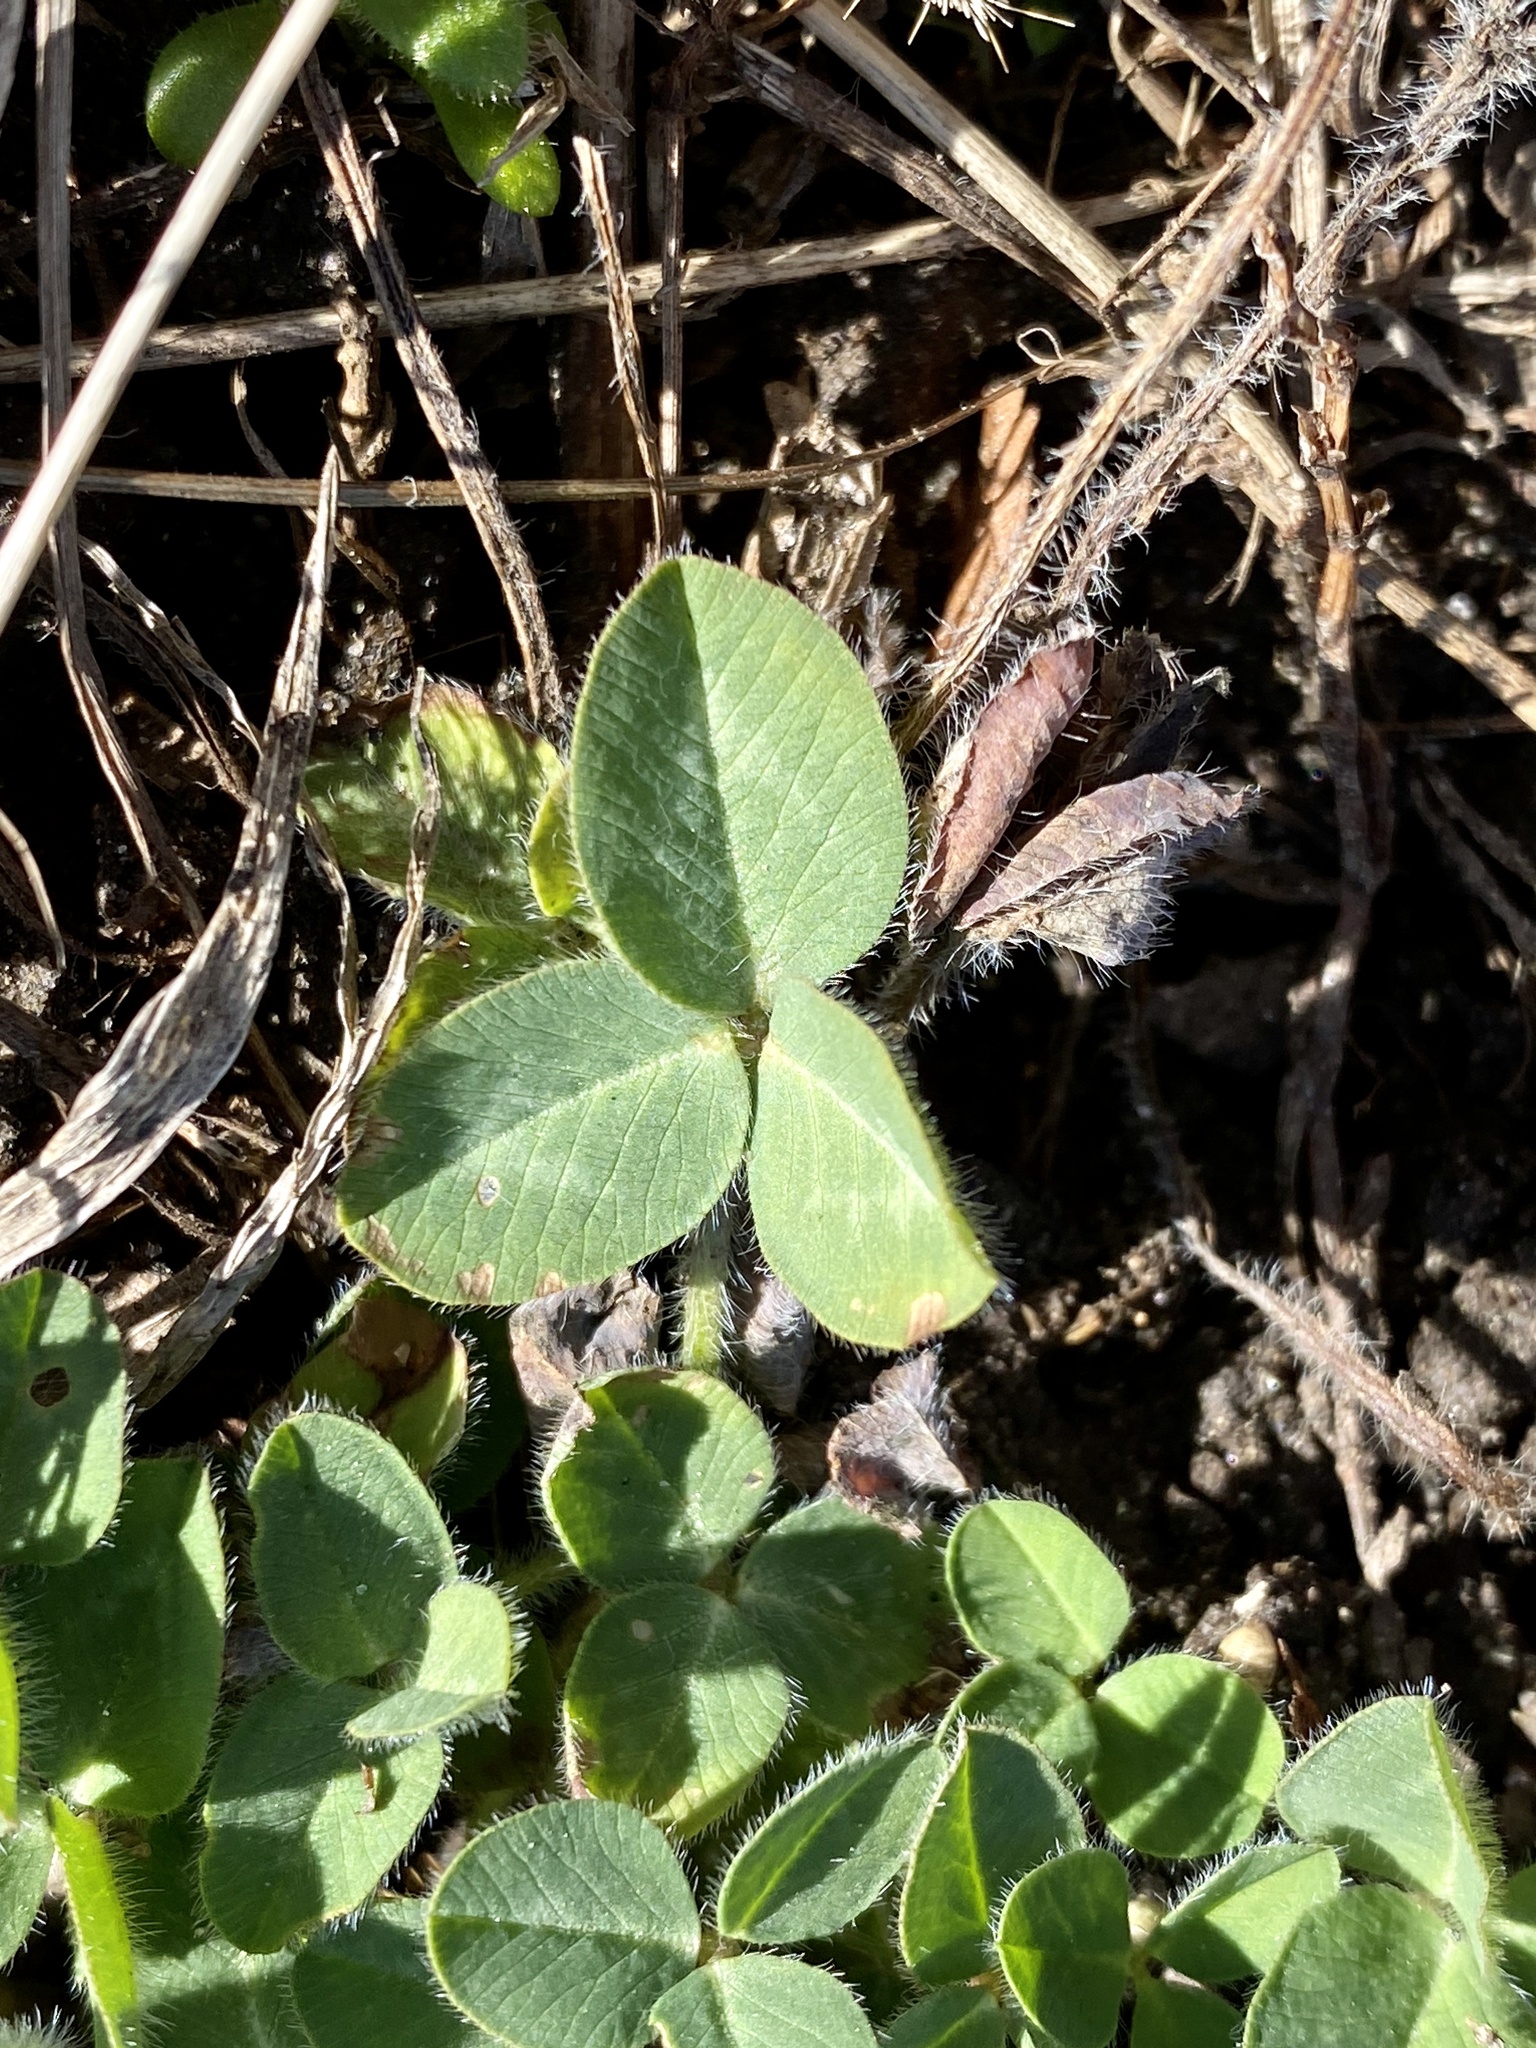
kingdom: Plantae
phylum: Tracheophyta
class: Magnoliopsida
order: Fabales
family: Fabaceae
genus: Trifolium
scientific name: Trifolium pratense
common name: Red clover
